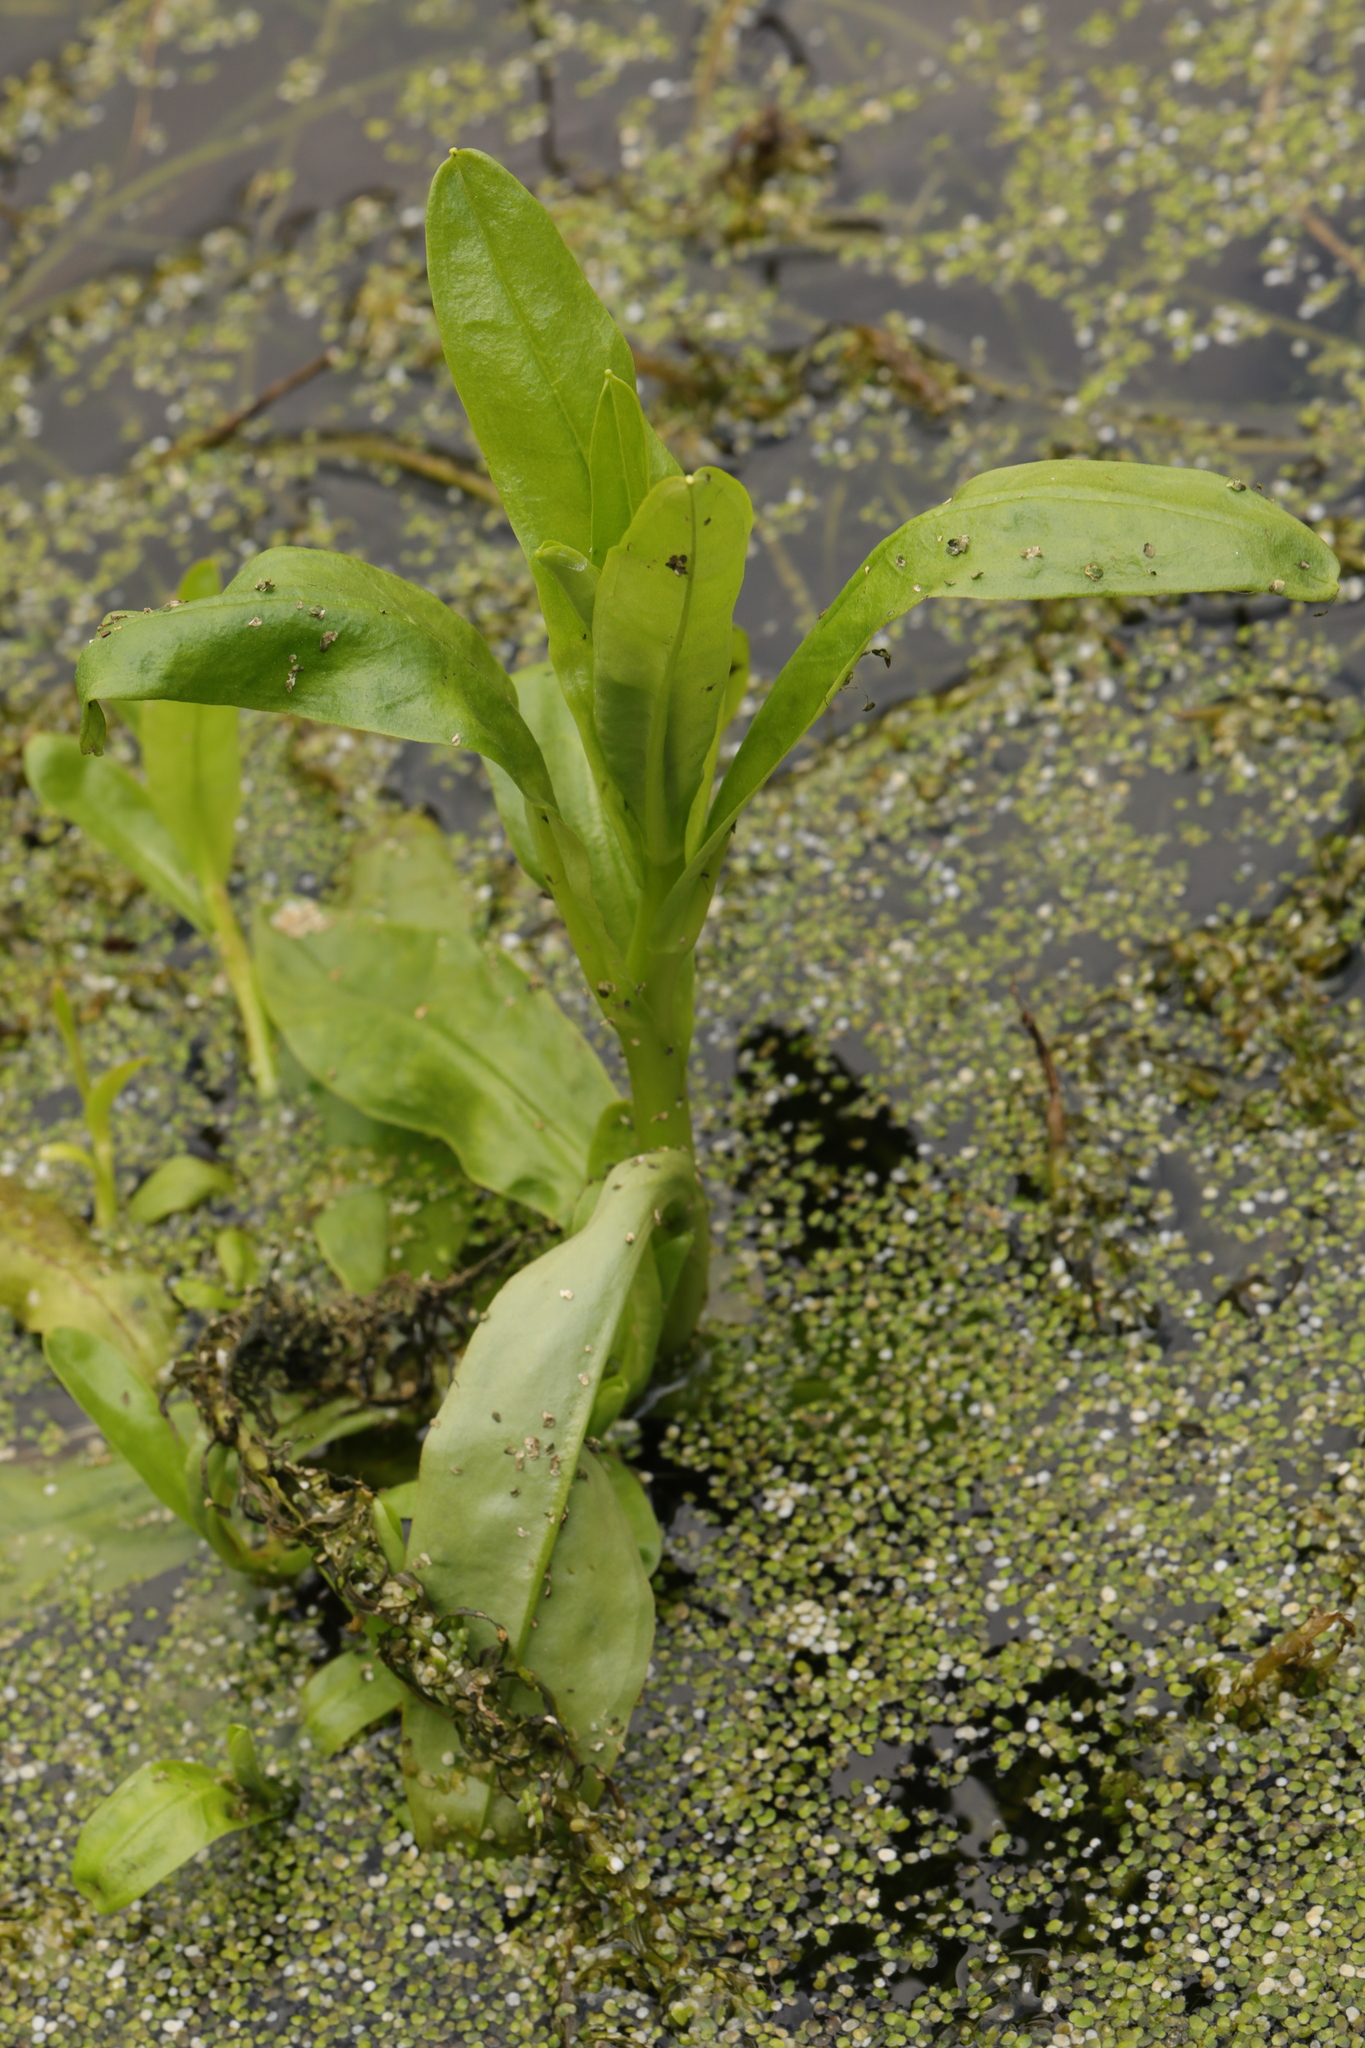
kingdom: Plantae
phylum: Tracheophyta
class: Magnoliopsida
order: Boraginales
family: Boraginaceae
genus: Myosotis
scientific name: Myosotis scorpioides
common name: Water forget-me-not
